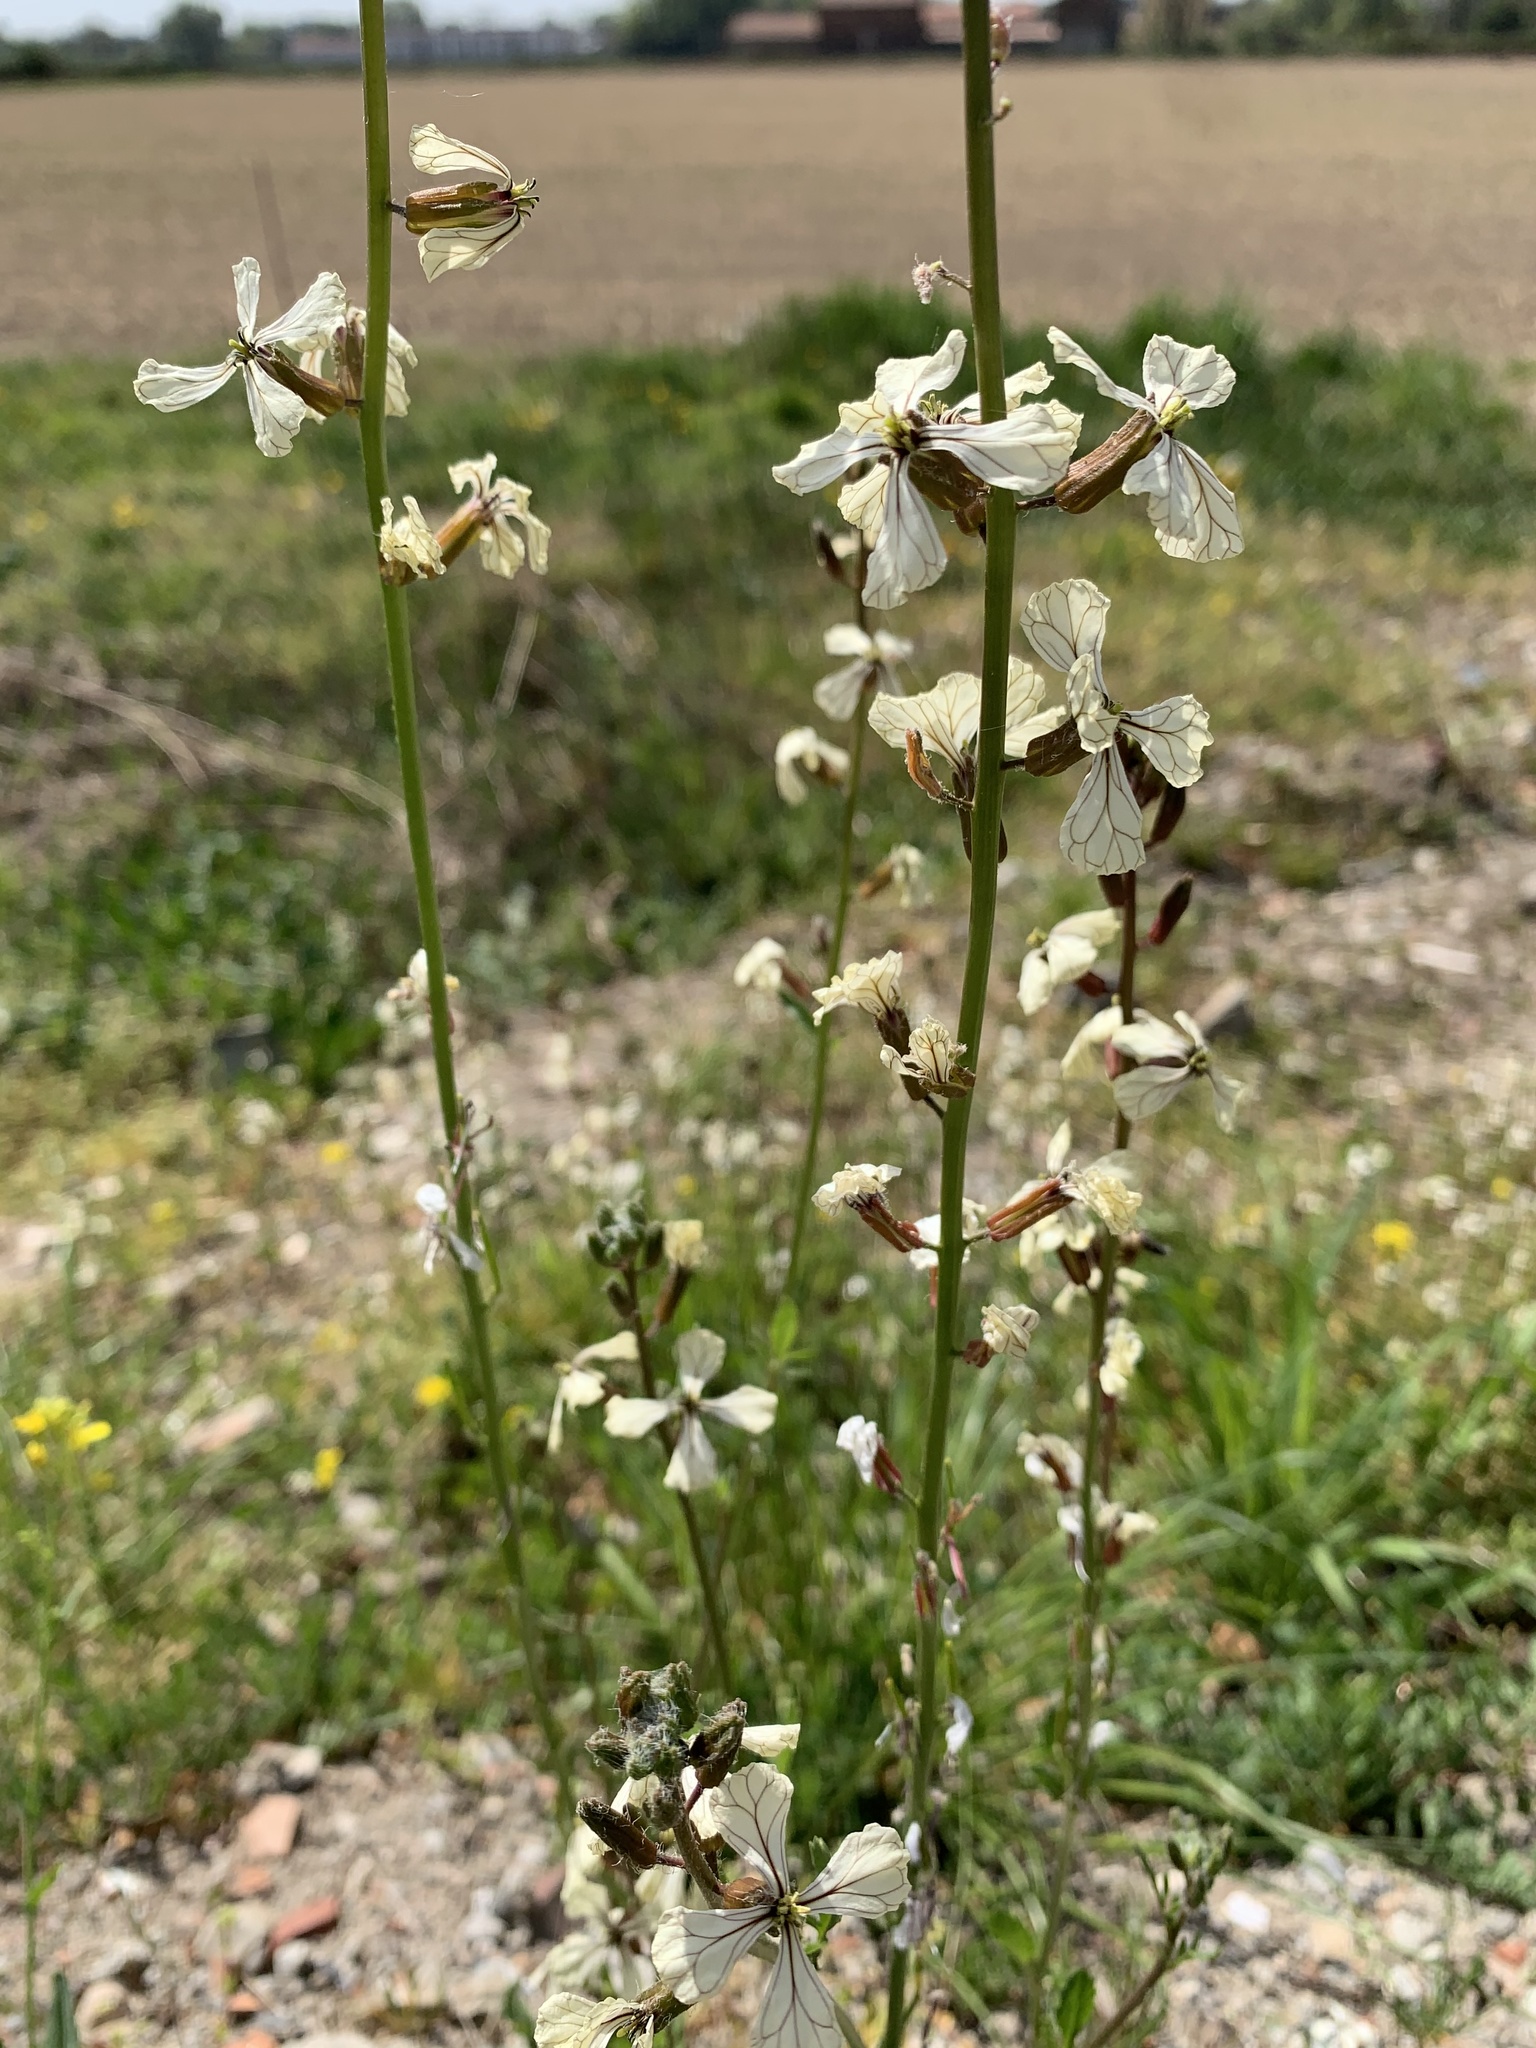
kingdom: Plantae
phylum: Tracheophyta
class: Magnoliopsida
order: Brassicales
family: Brassicaceae
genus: Eruca
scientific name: Eruca vesicaria
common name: Garden rocket
